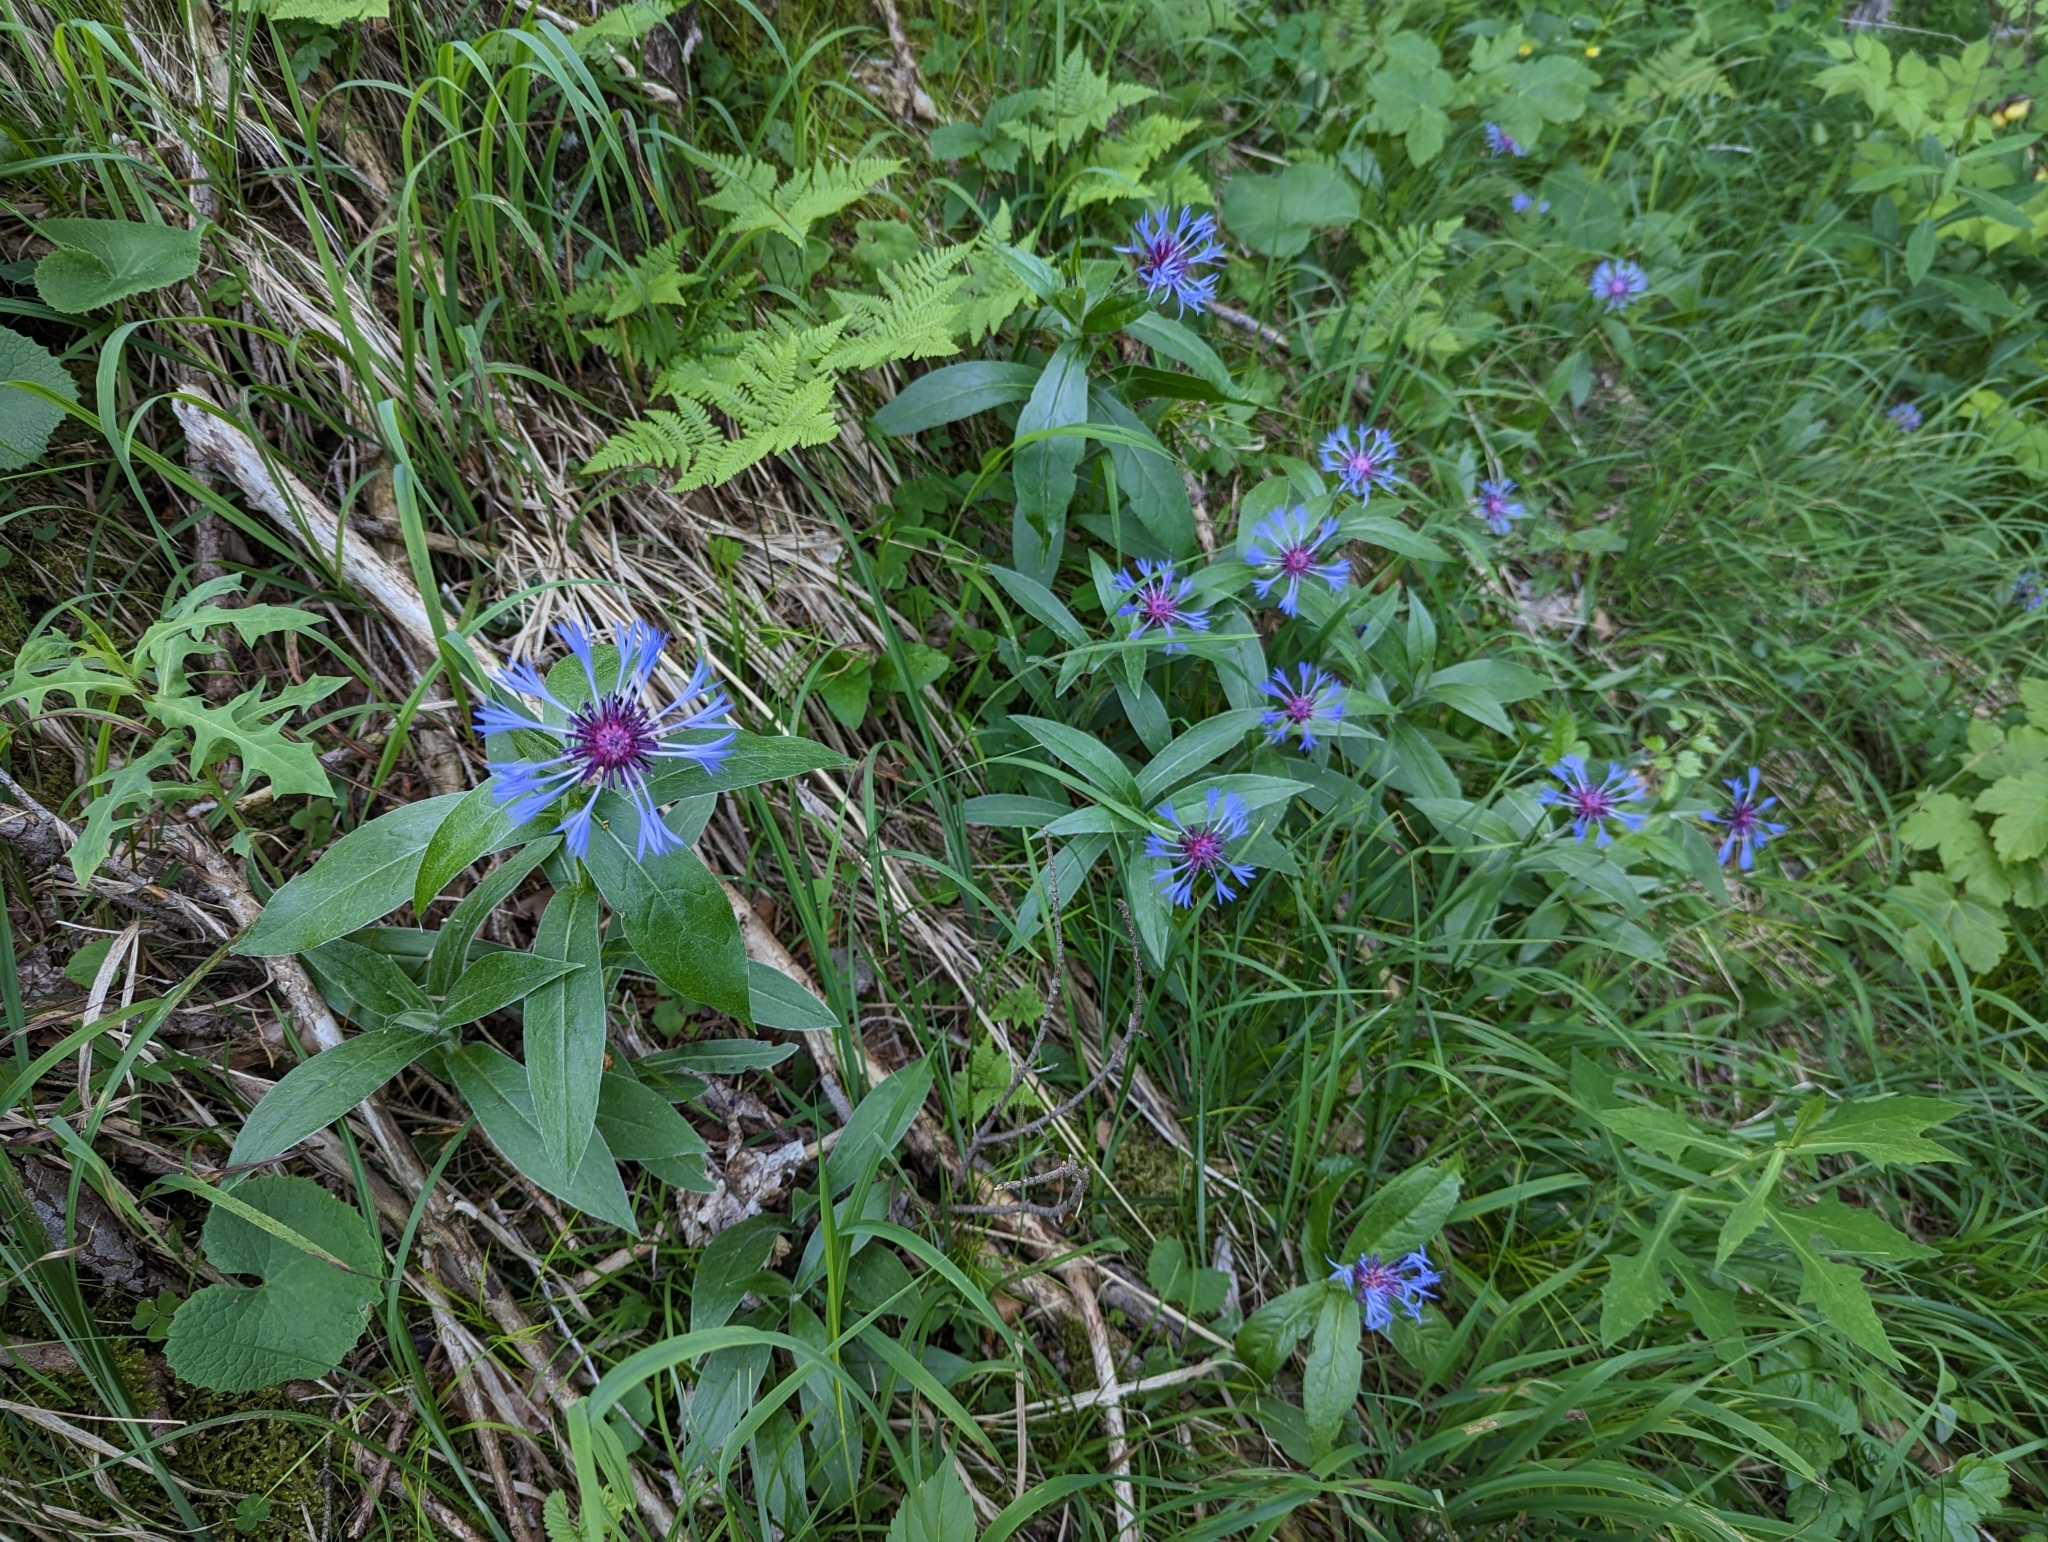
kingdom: Plantae
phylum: Tracheophyta
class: Magnoliopsida
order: Asterales
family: Asteraceae
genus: Centaurea
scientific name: Centaurea montana
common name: Perennial cornflower
